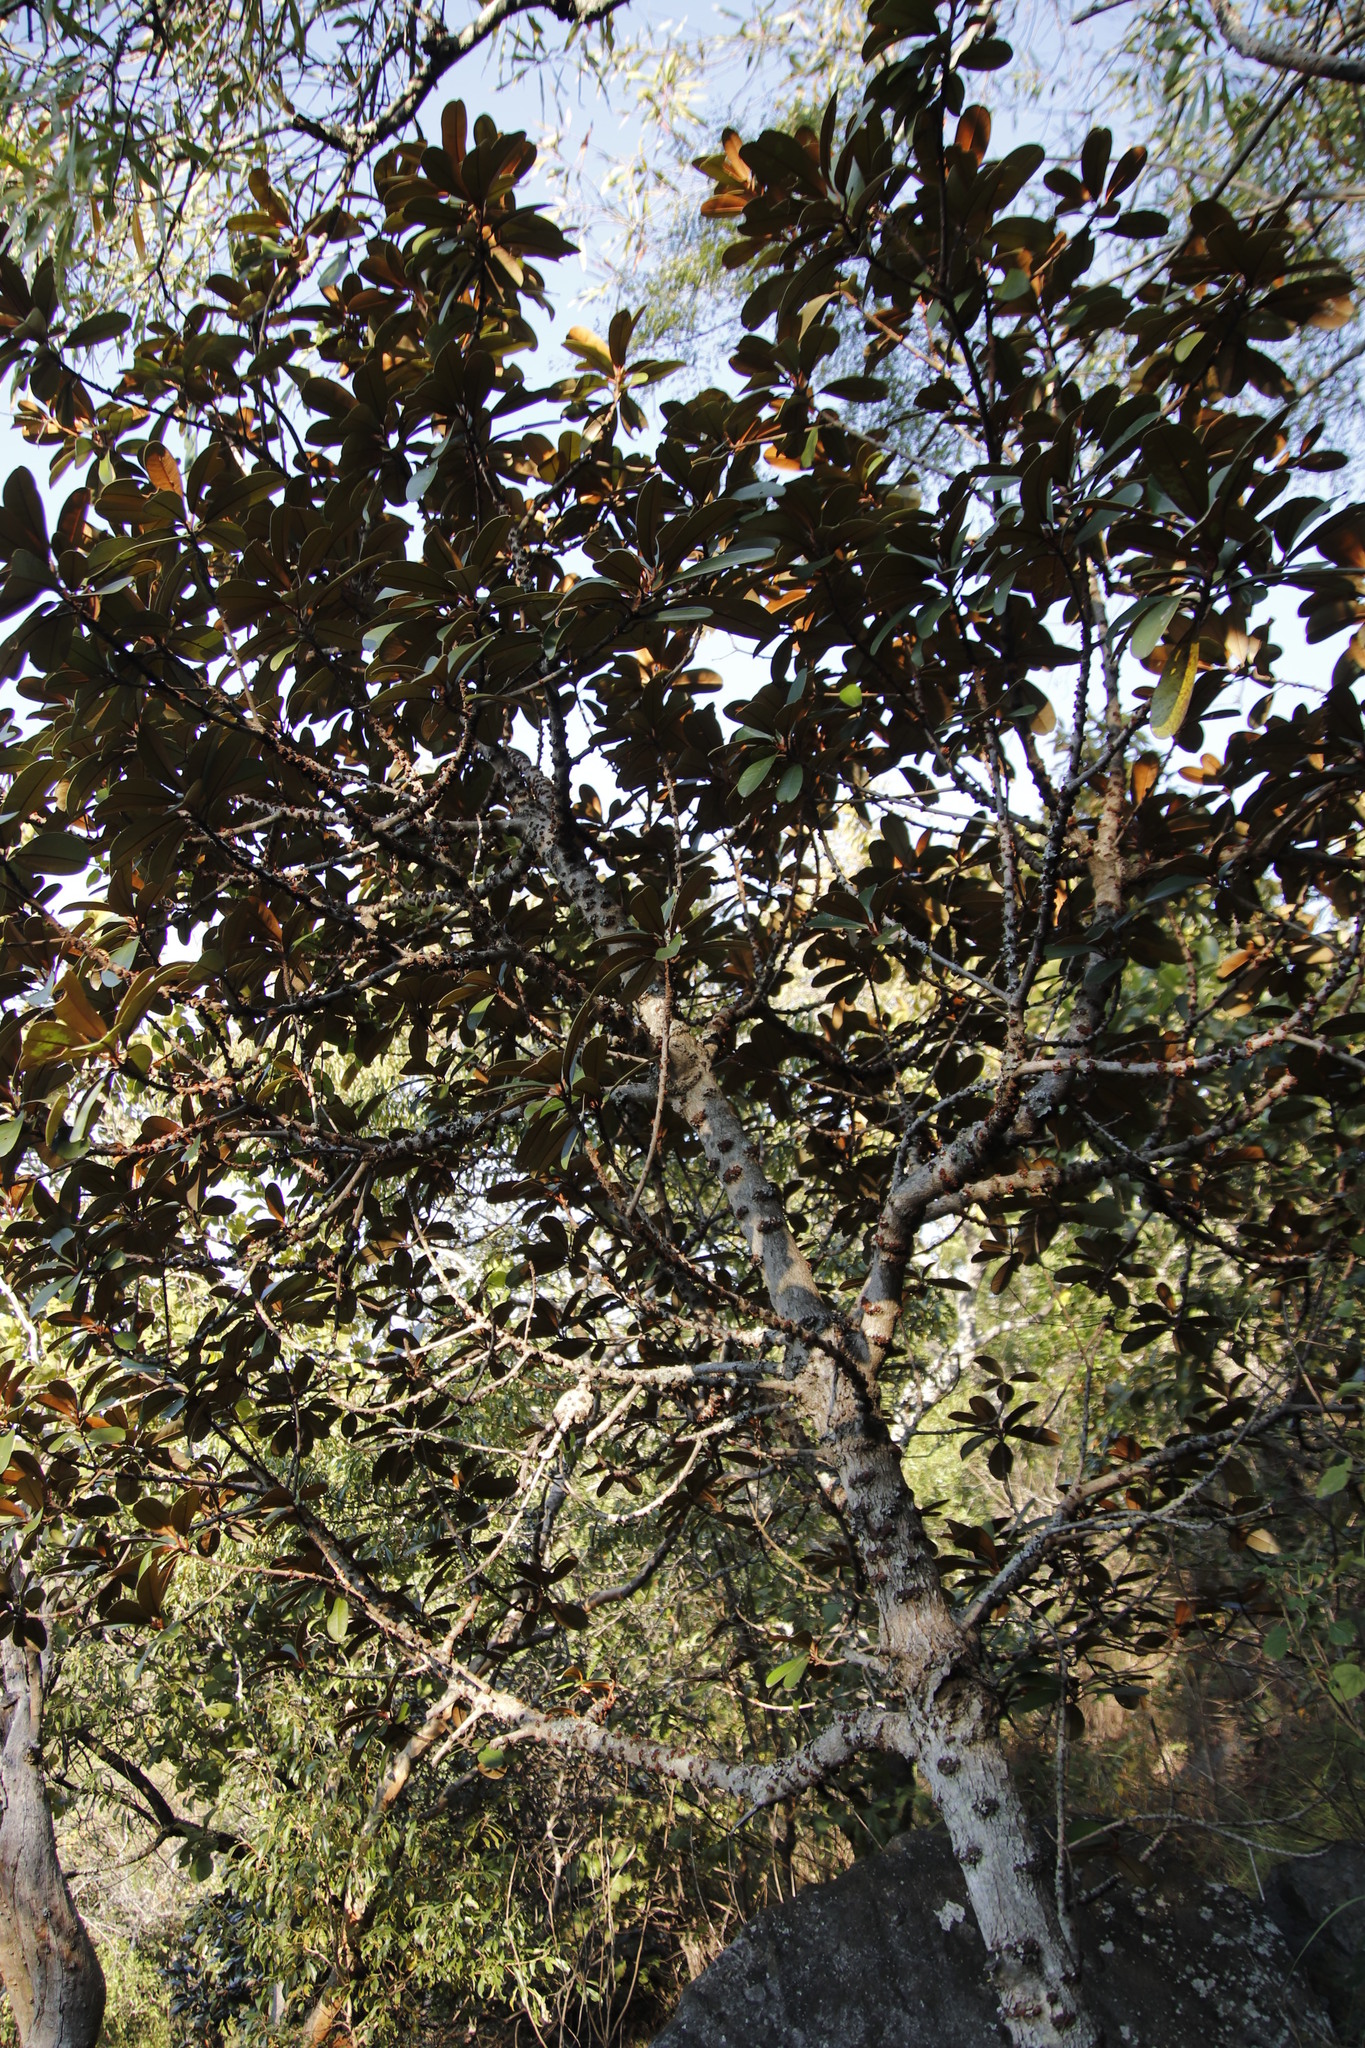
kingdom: Plantae
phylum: Tracheophyta
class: Magnoliopsida
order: Ericales
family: Sapotaceae
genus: Englerophytum
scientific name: Englerophytum magalismontanum
